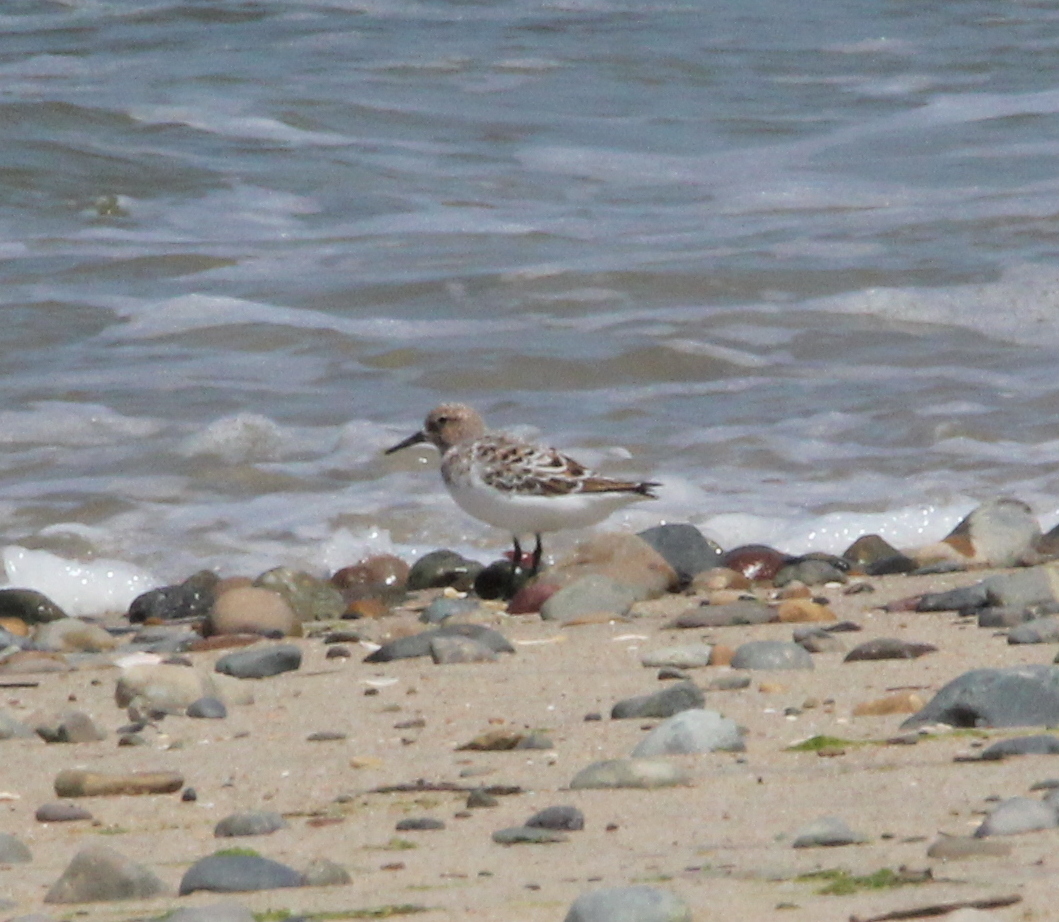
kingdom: Animalia
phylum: Chordata
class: Aves
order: Charadriiformes
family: Scolopacidae
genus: Calidris
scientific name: Calidris alba
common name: Sanderling
